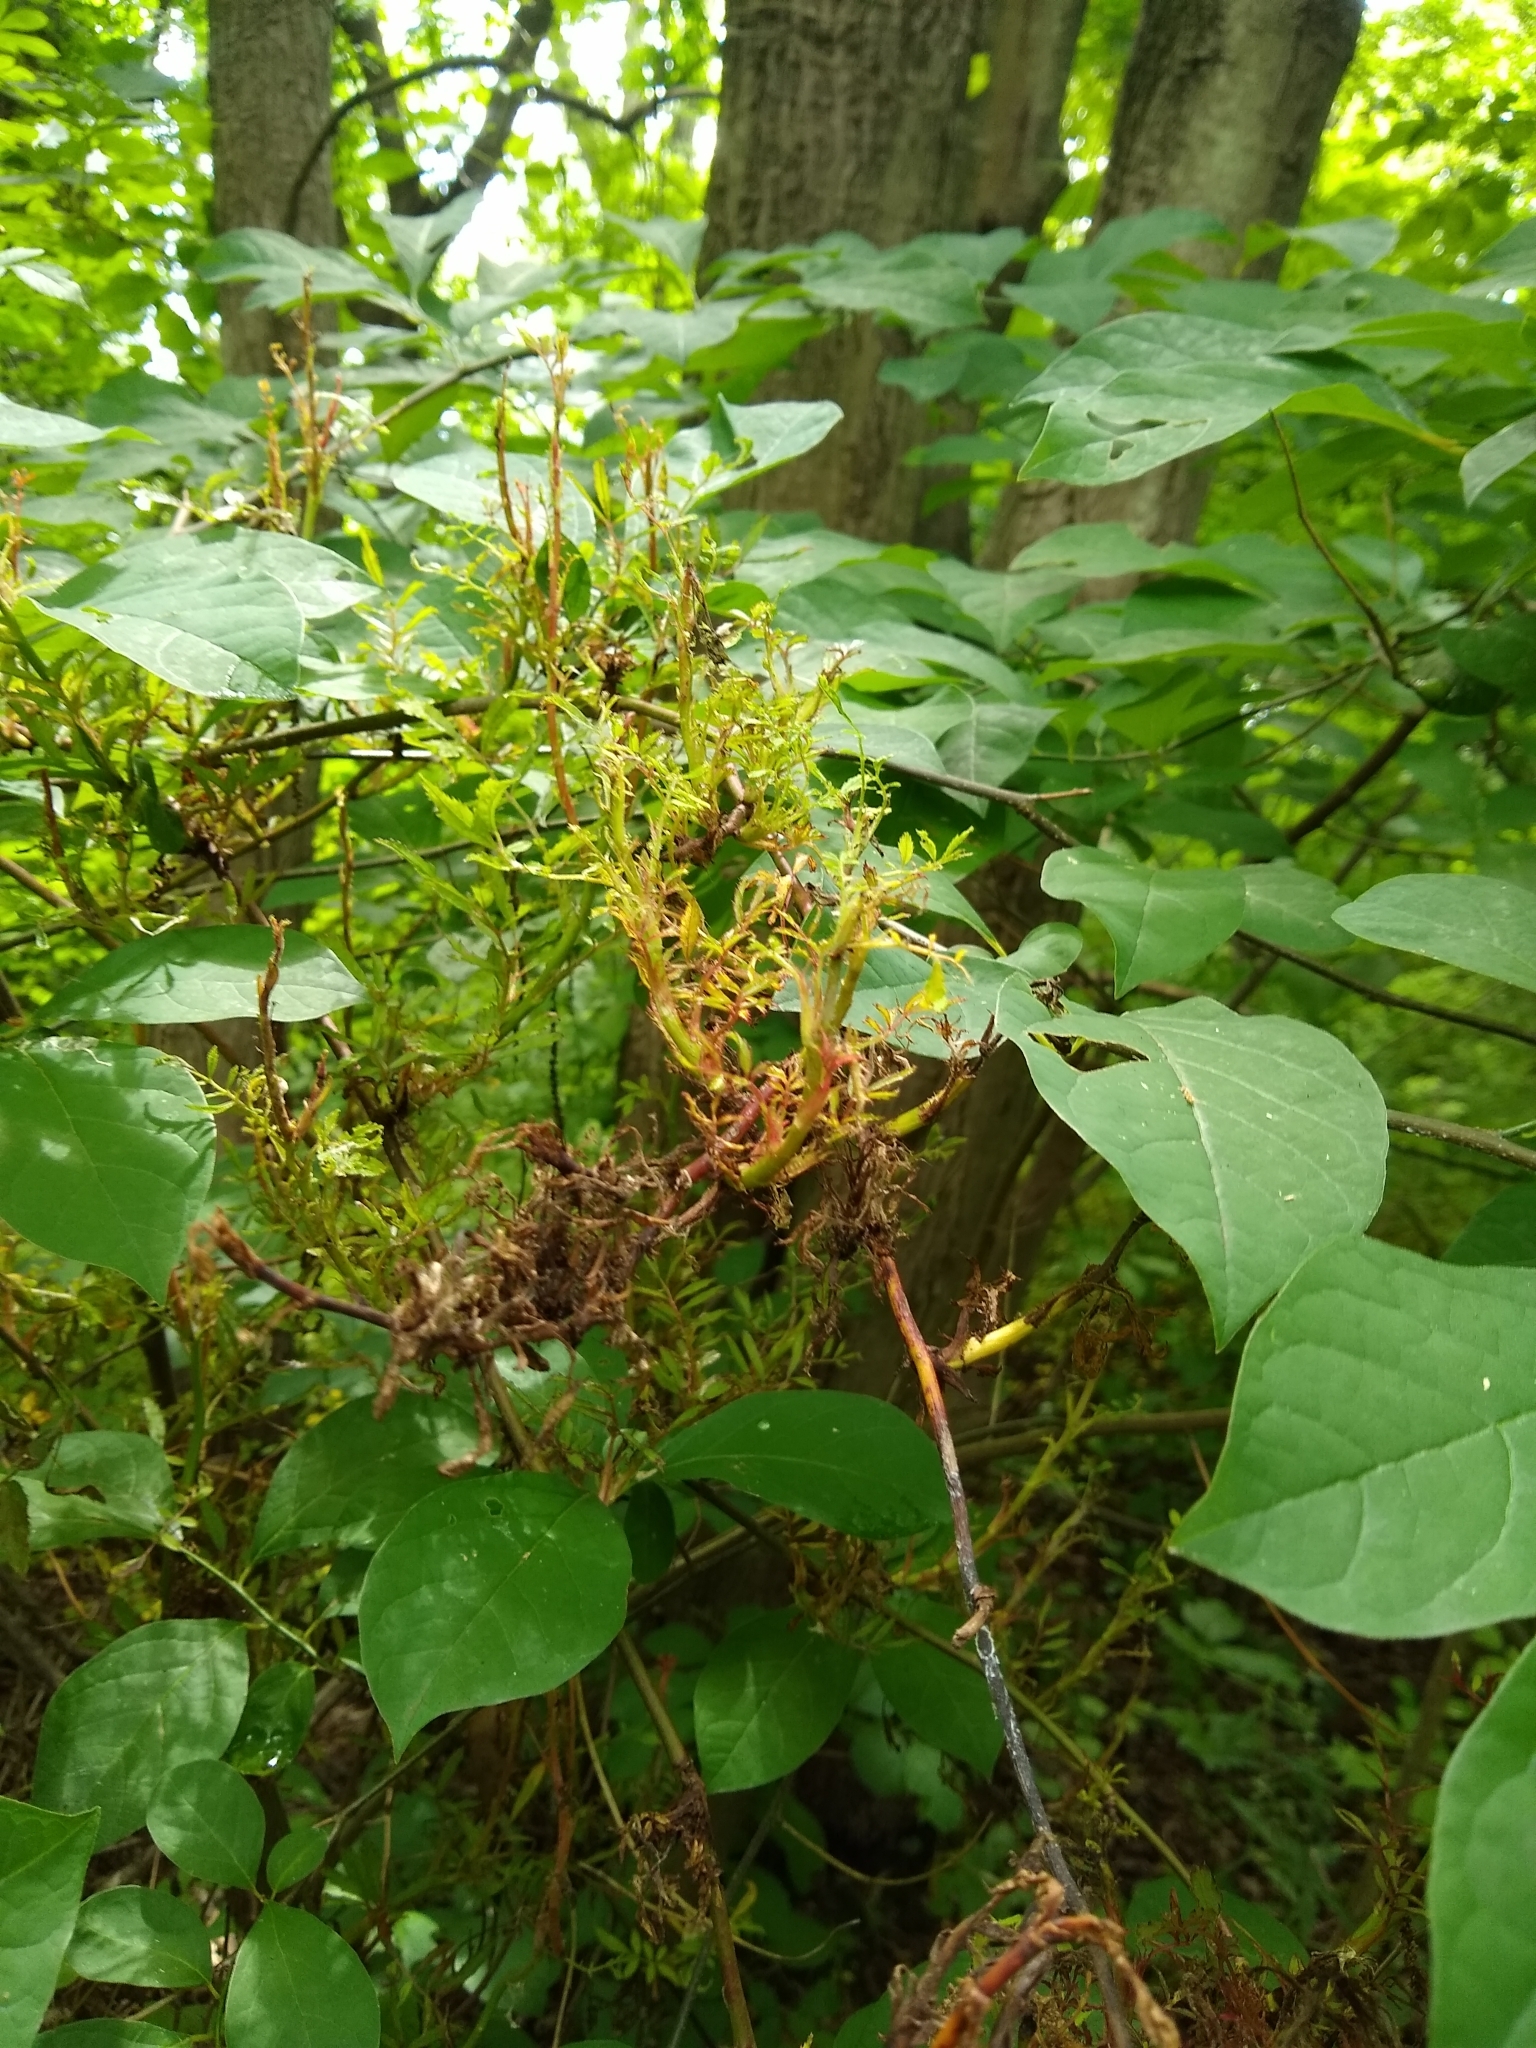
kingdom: Viruses
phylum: Negarnaviricota
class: Ellioviricetes
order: Bunyavirales
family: Fimoviridae
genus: Emaravirus
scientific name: Emaravirus rosae
